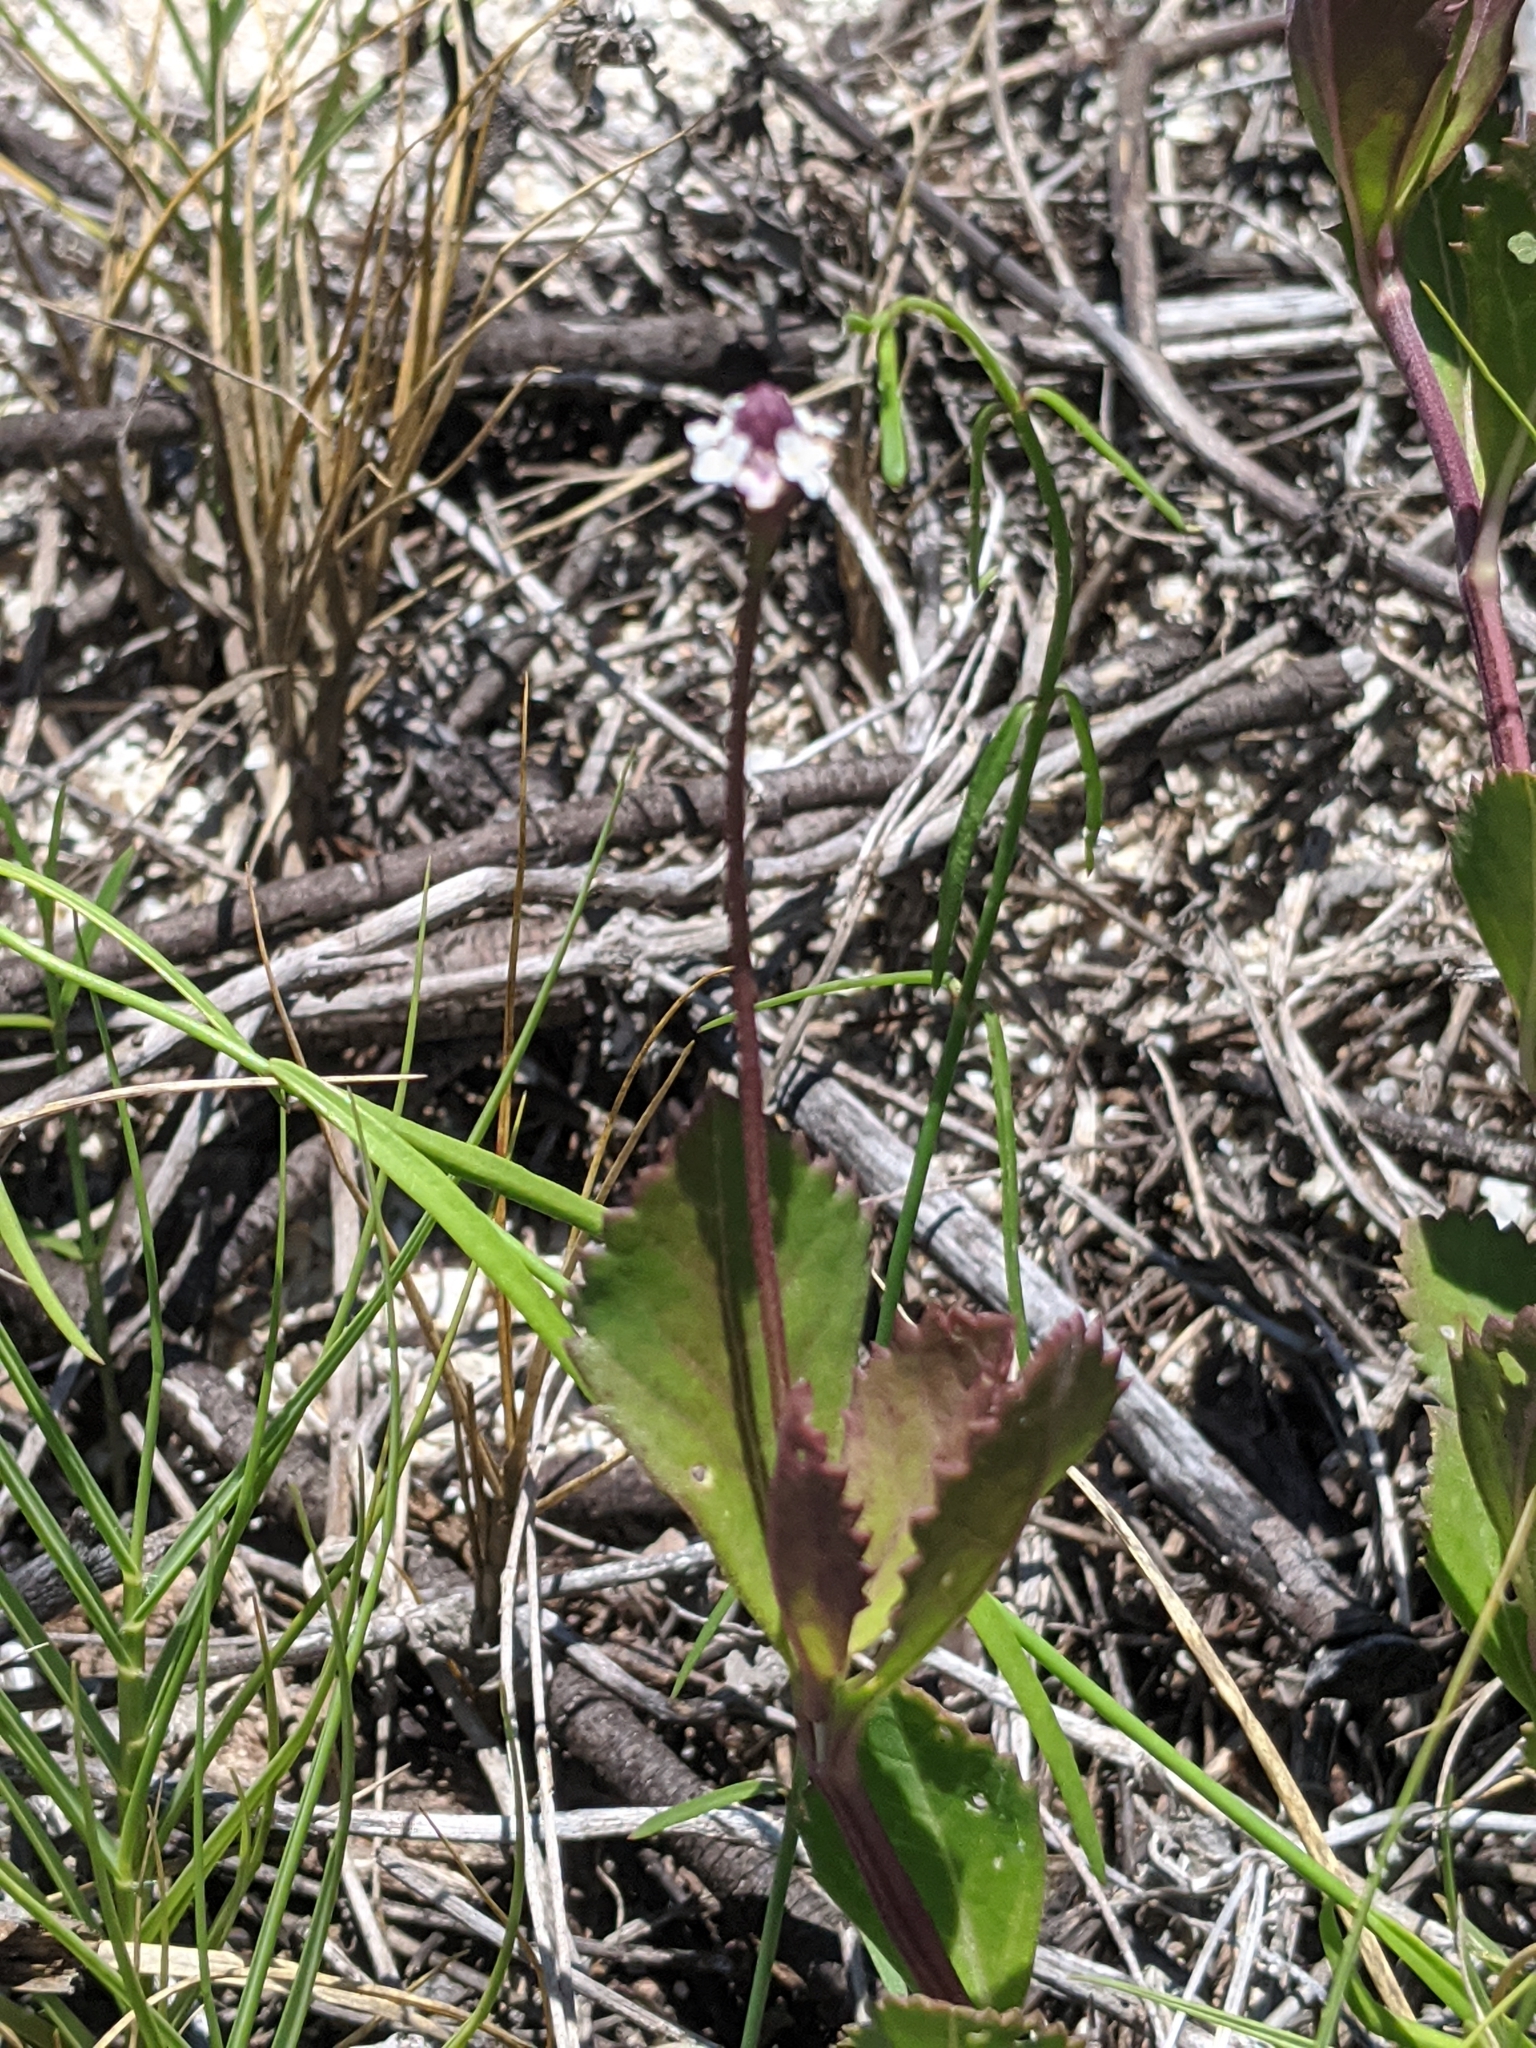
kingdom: Plantae
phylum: Tracheophyta
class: Magnoliopsida
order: Lamiales
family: Verbenaceae
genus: Phyla
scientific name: Phyla nodiflora
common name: Frogfruit
